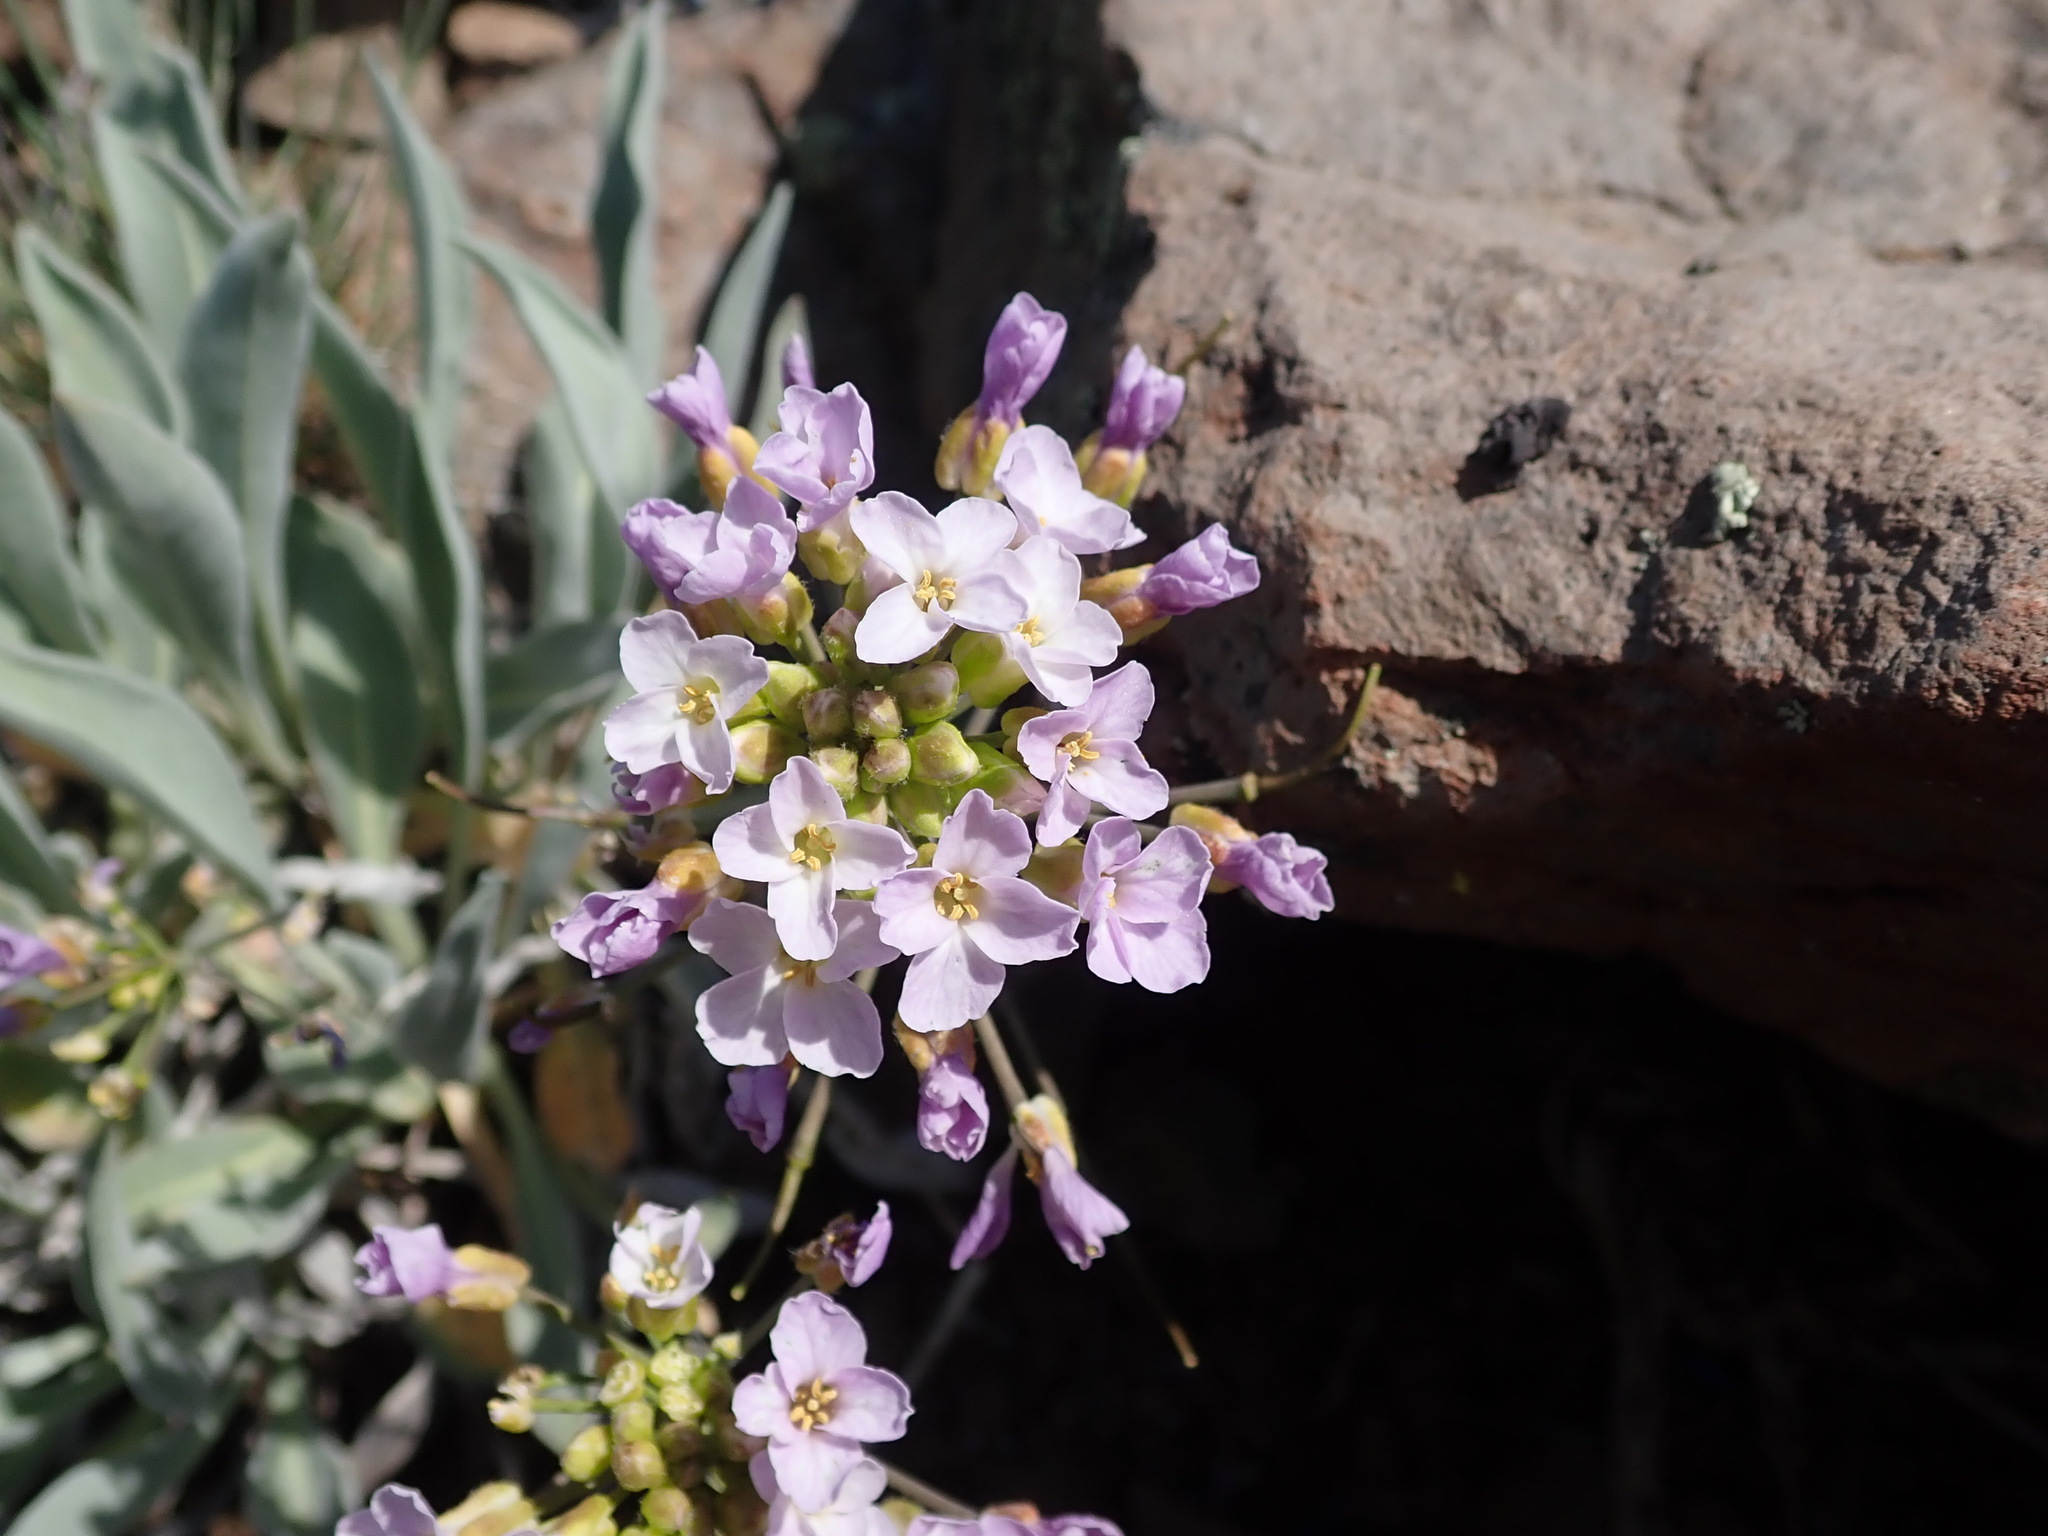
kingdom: Plantae
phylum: Tracheophyta
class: Magnoliopsida
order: Brassicales
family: Brassicaceae
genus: Phoenicaulis
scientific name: Phoenicaulis cheiranthoides
